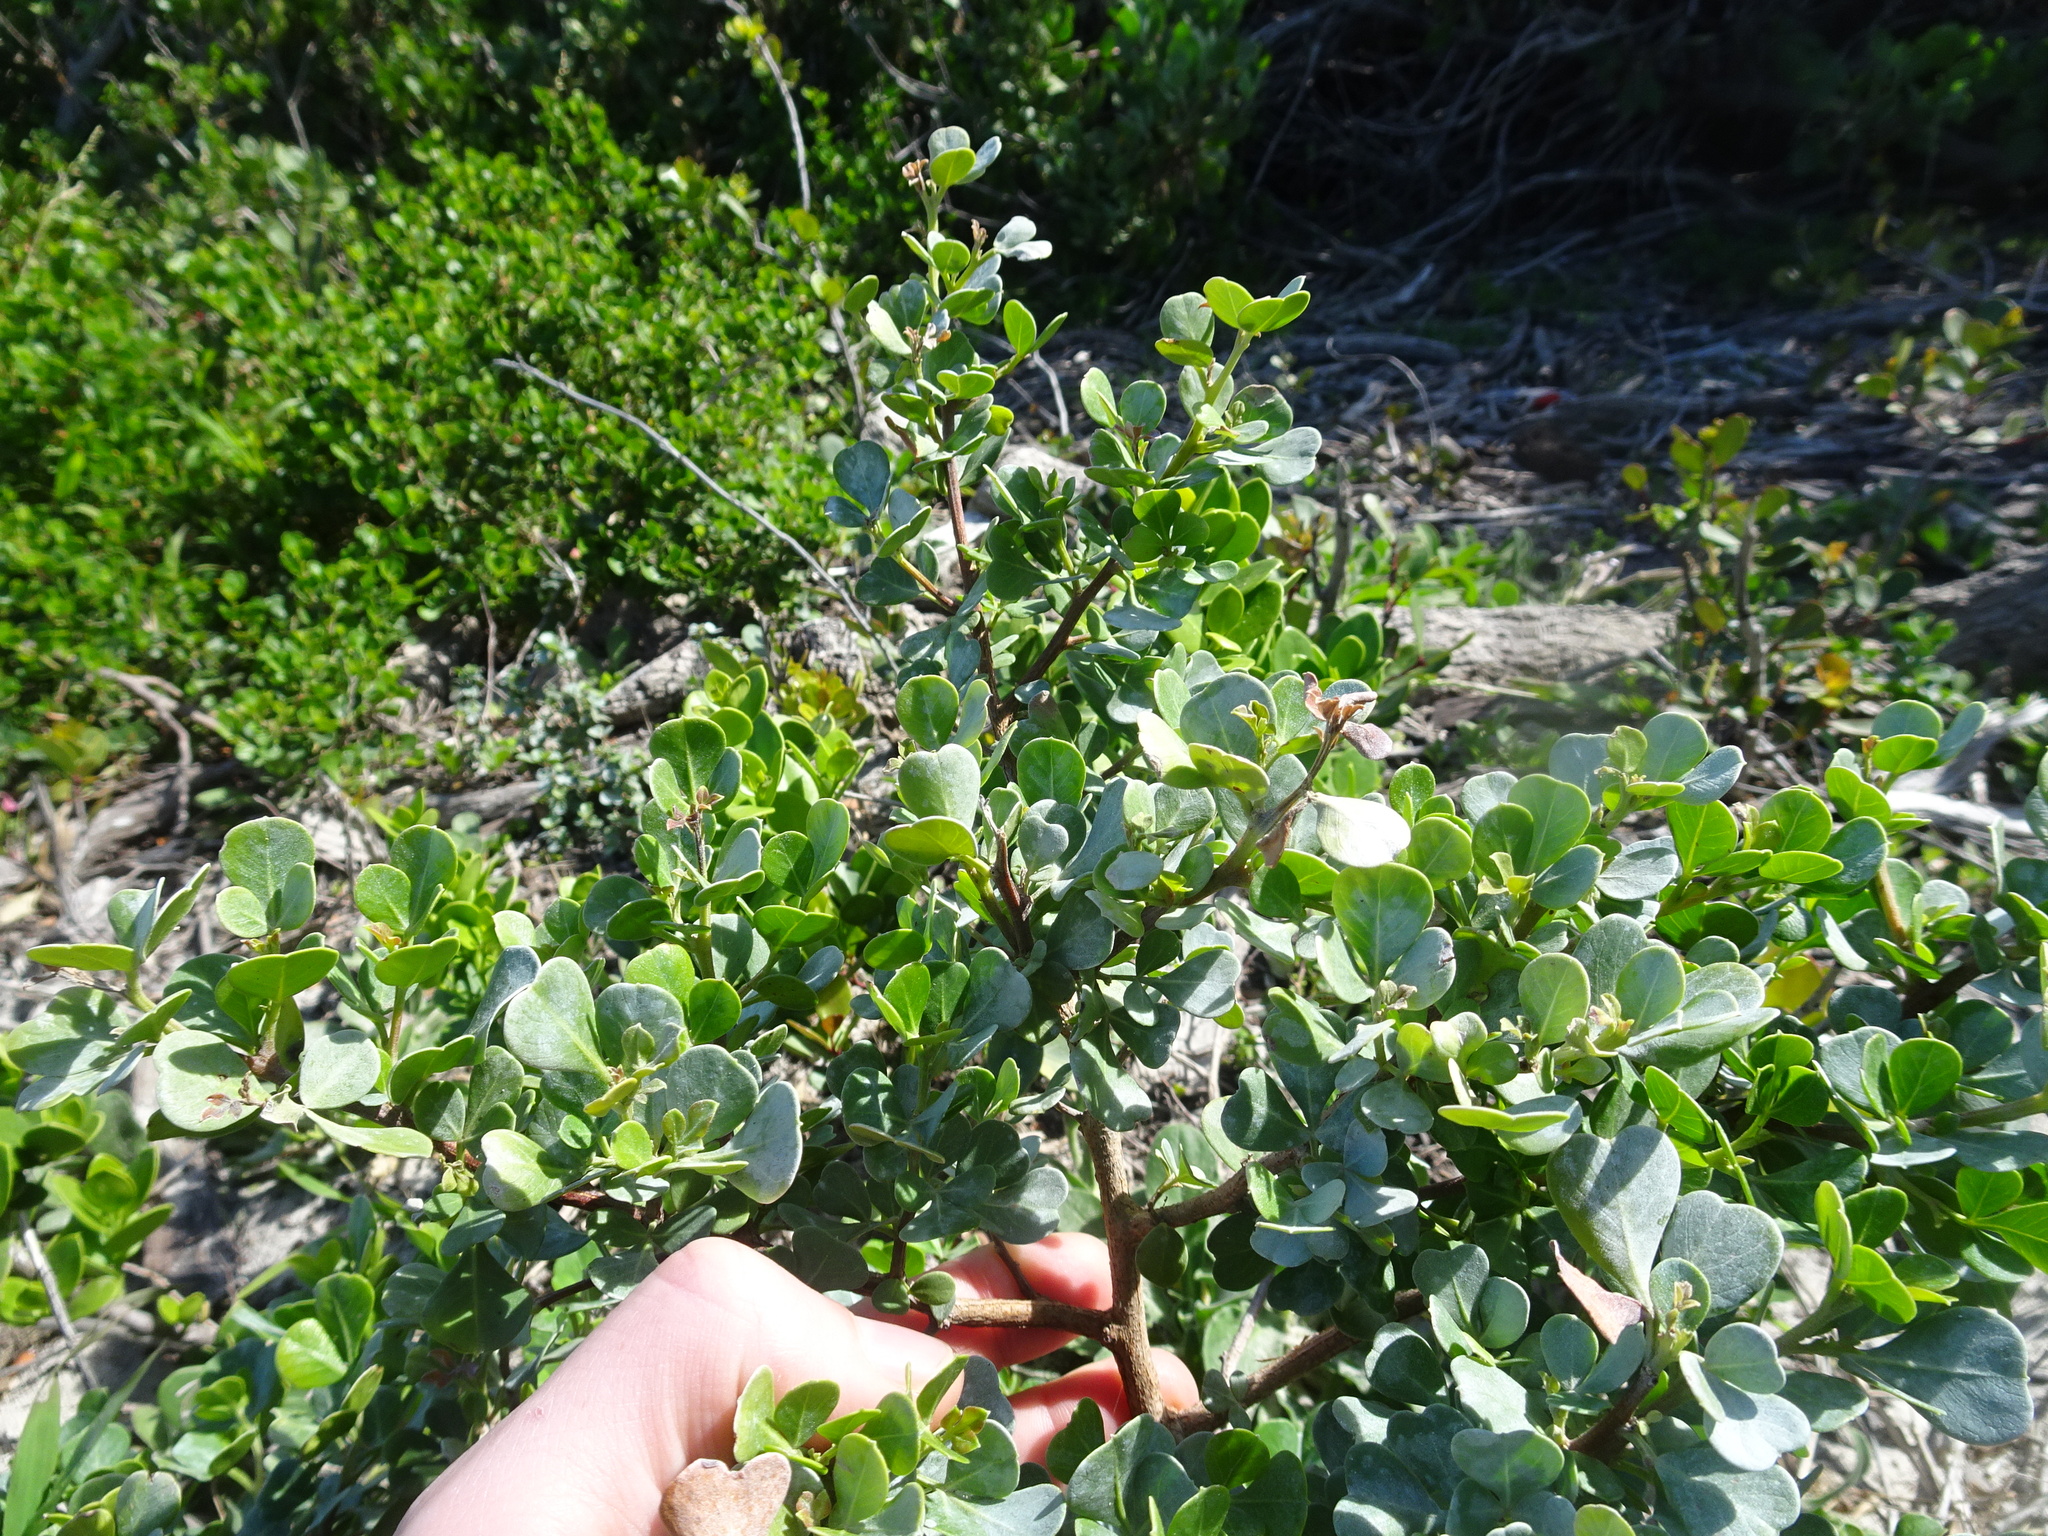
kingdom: Plantae
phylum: Tracheophyta
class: Magnoliopsida
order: Sapindales
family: Anacardiaceae
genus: Searsia
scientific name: Searsia glauca
